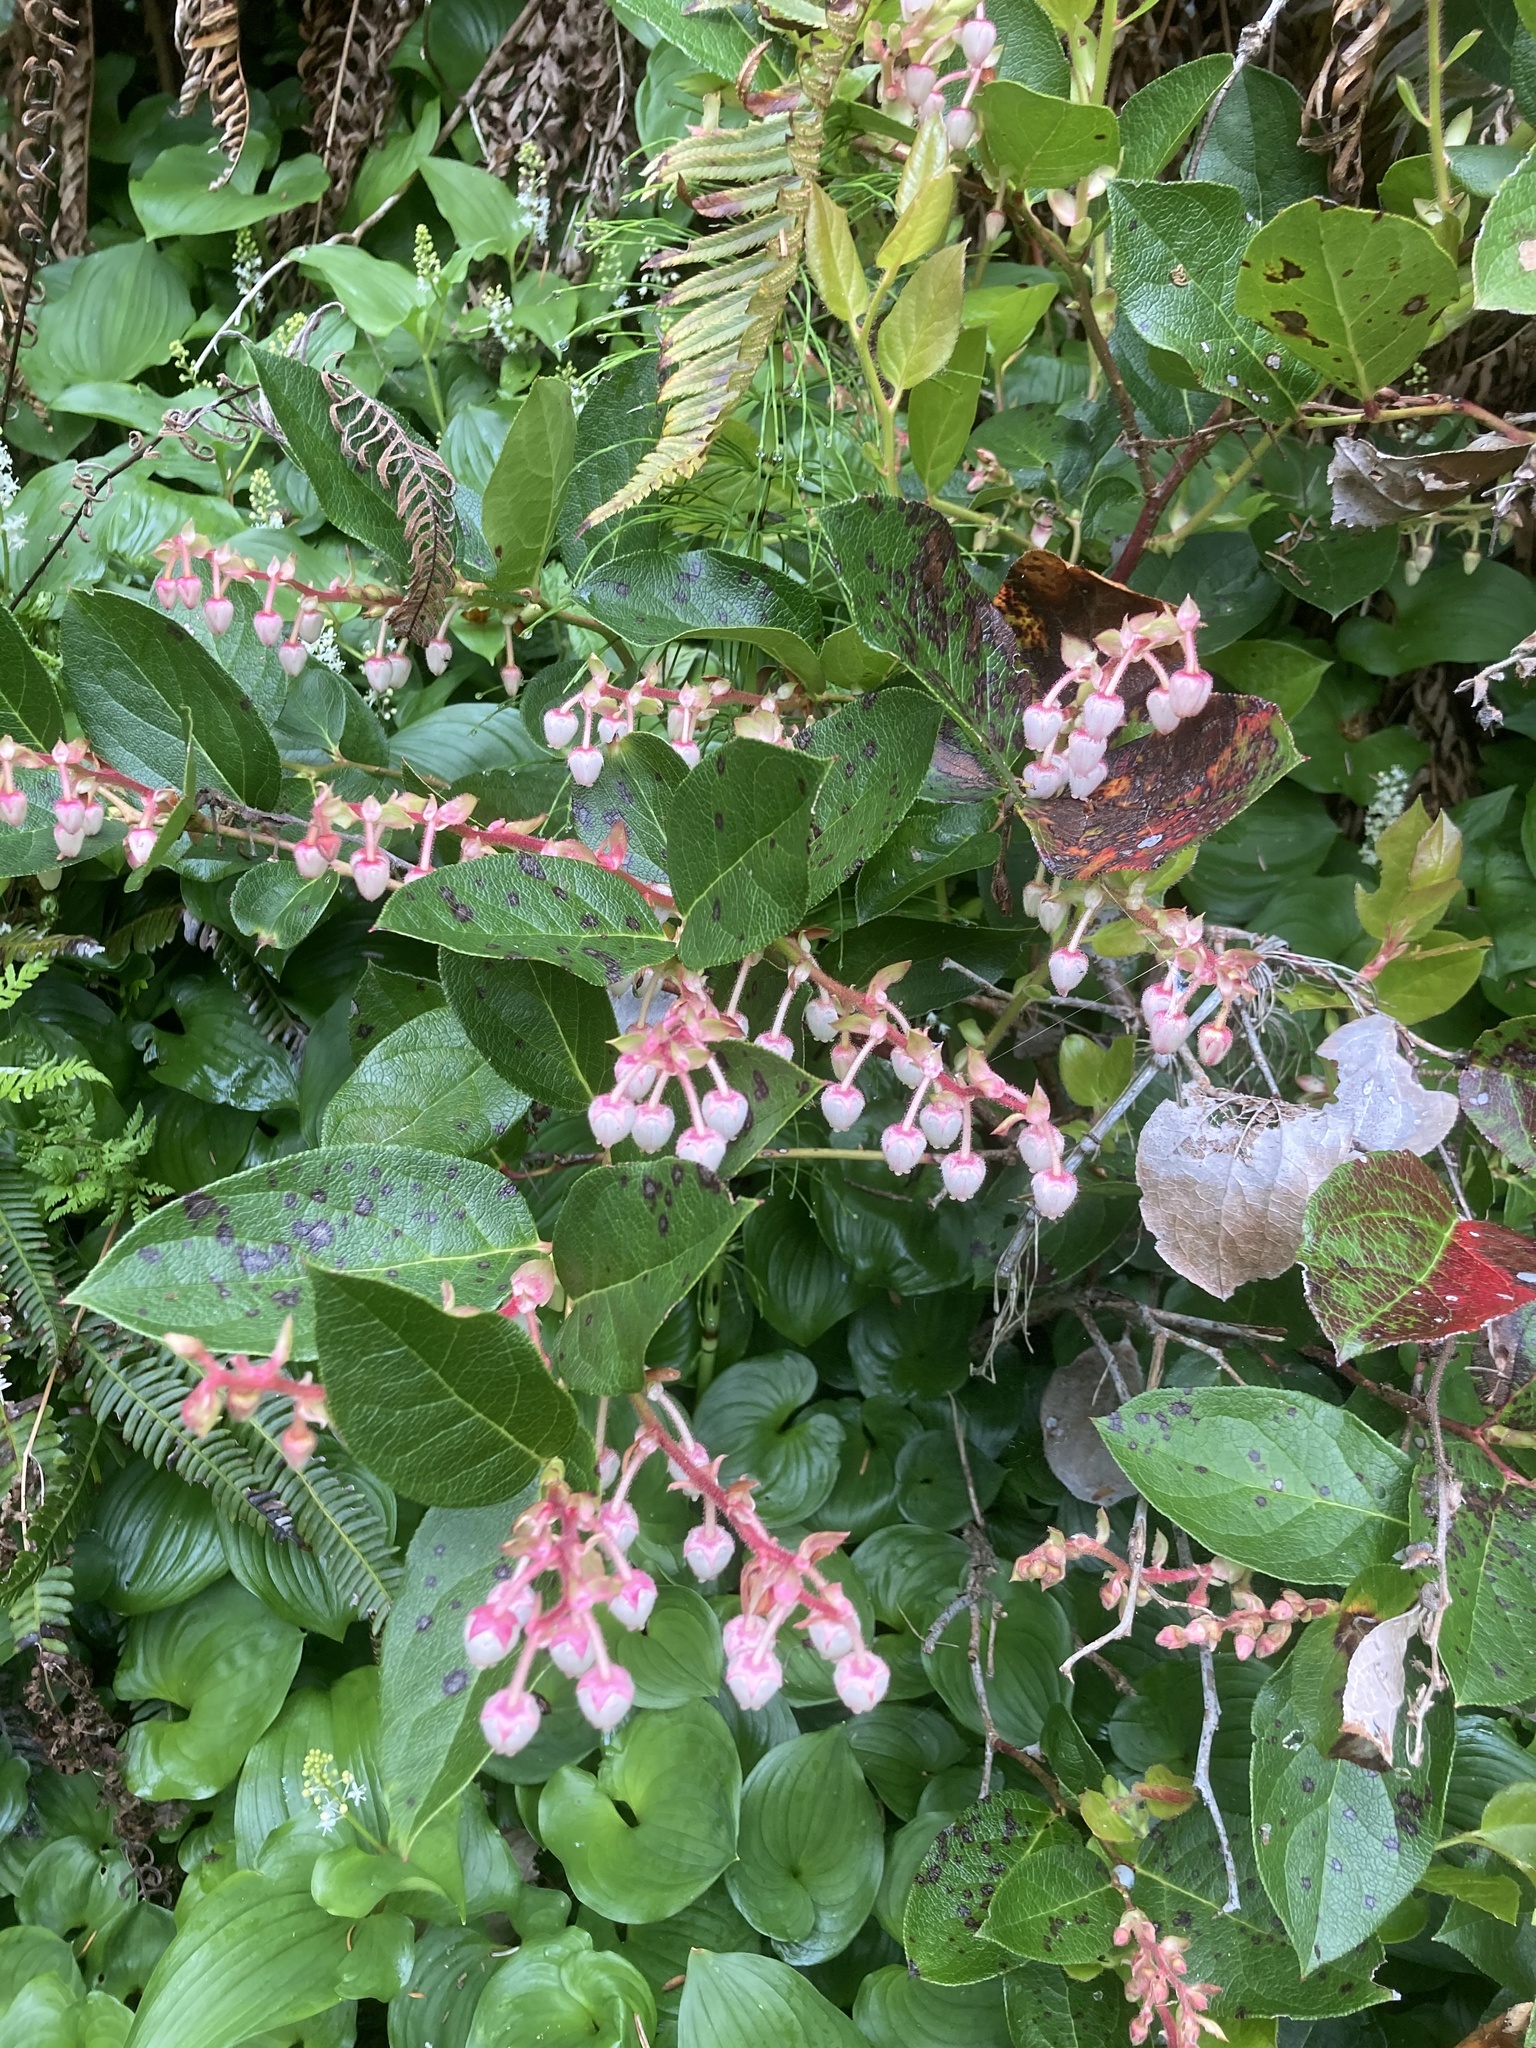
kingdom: Plantae
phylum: Tracheophyta
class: Magnoliopsida
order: Ericales
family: Ericaceae
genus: Gaultheria
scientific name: Gaultheria shallon
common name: Shallon
